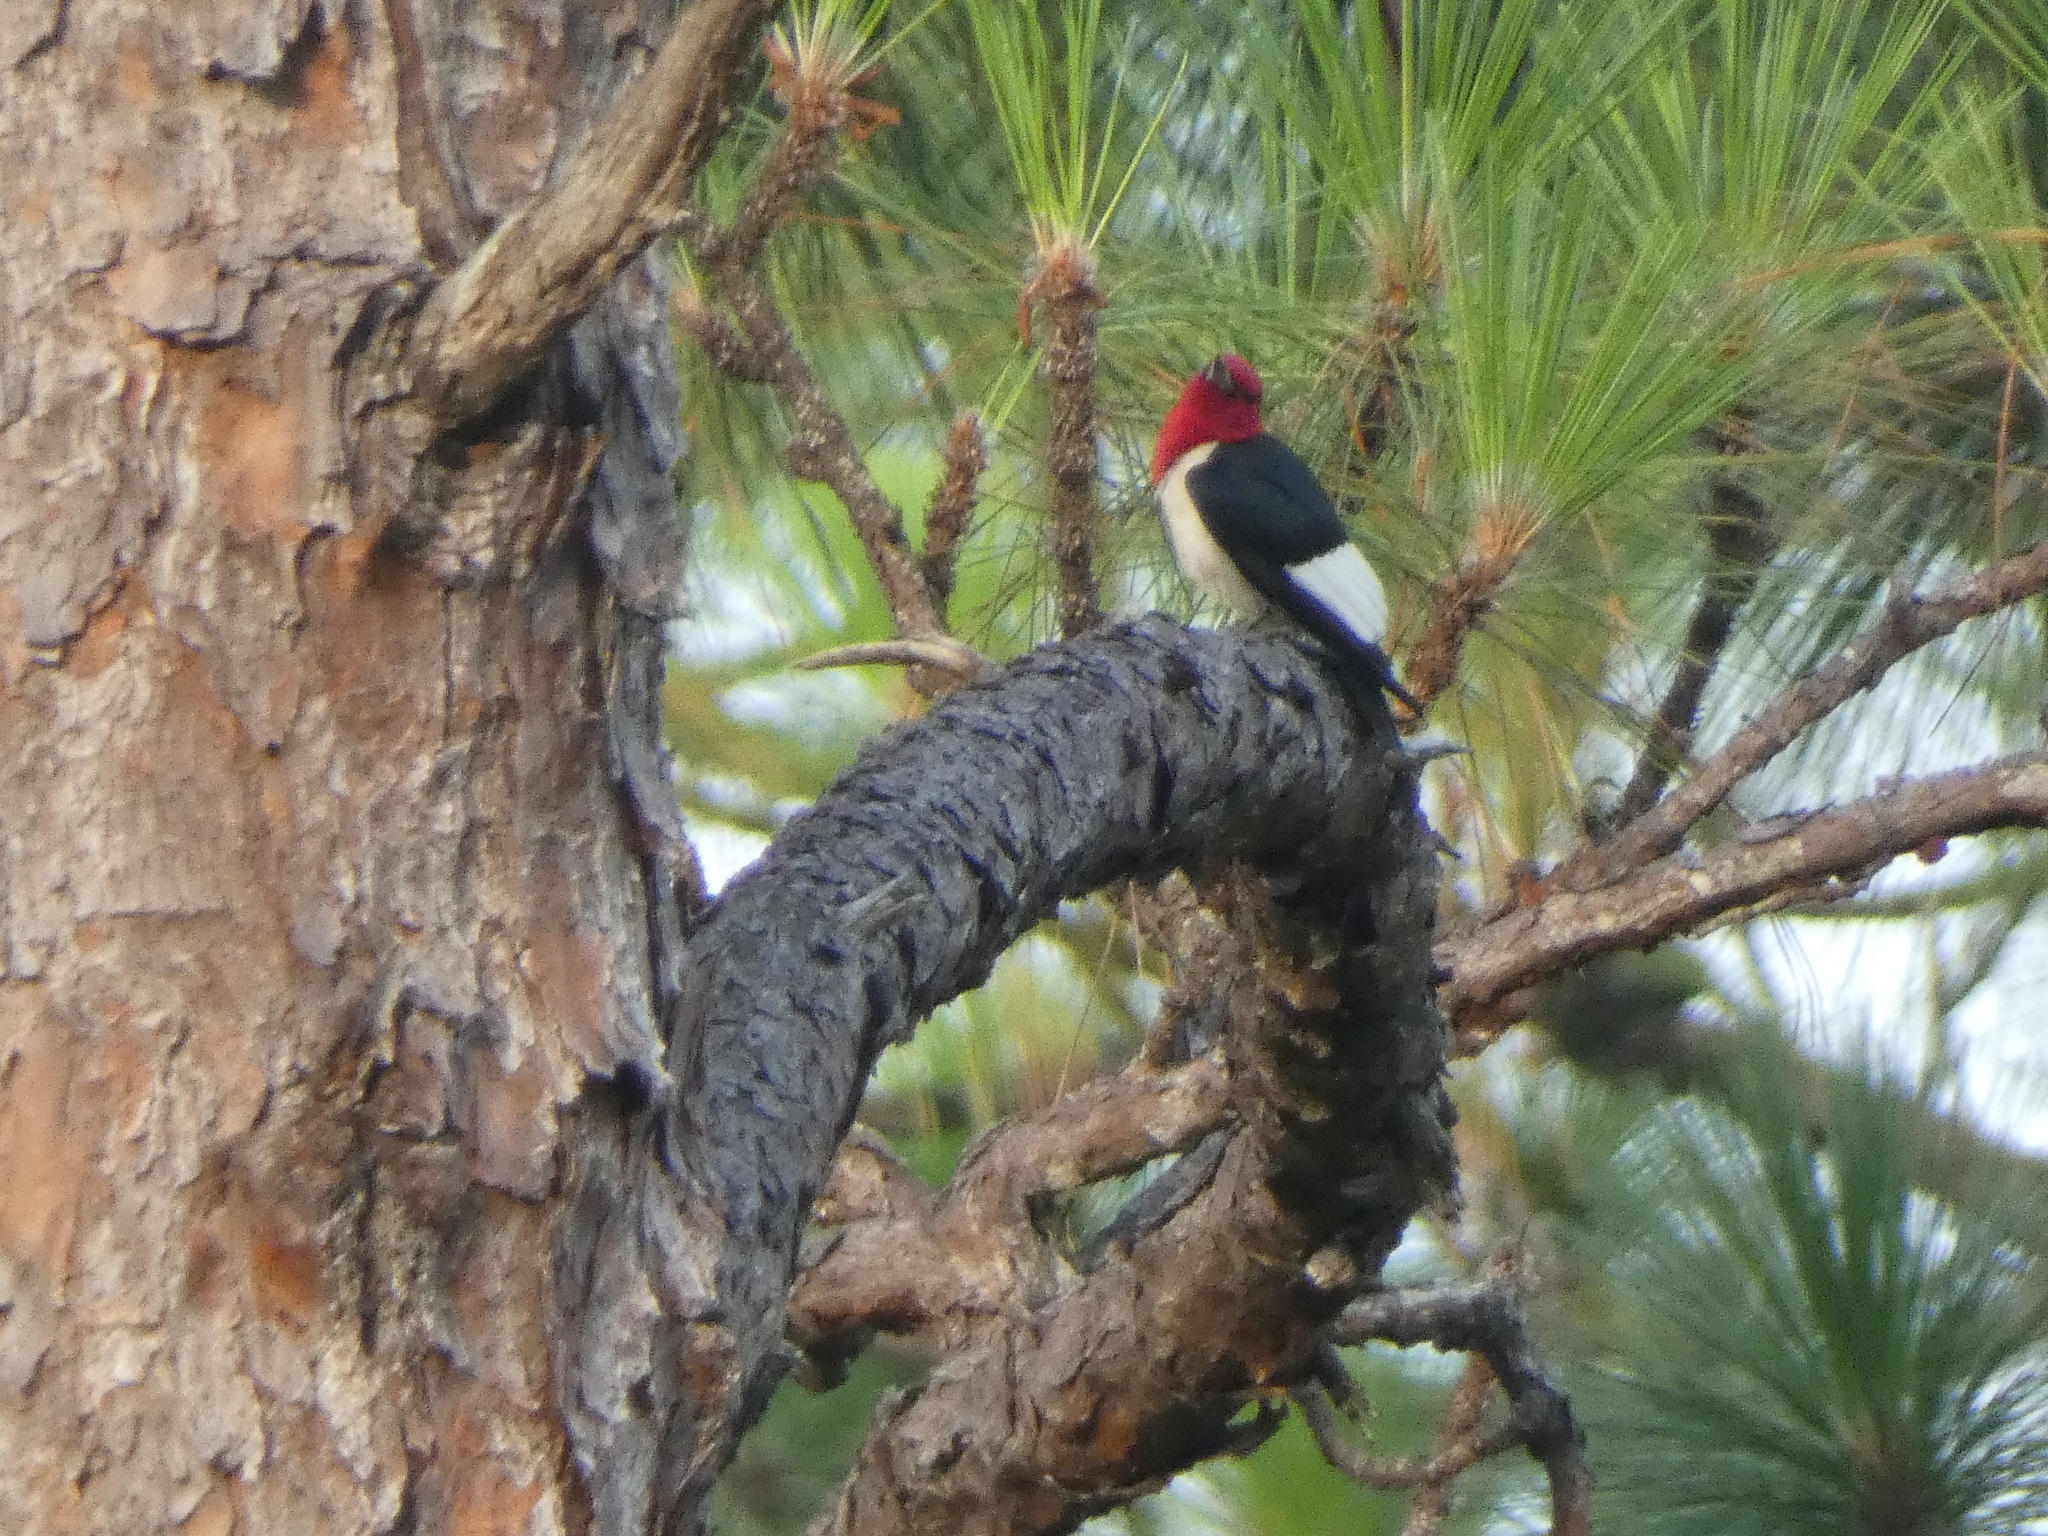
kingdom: Animalia
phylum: Chordata
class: Aves
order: Piciformes
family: Picidae
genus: Melanerpes
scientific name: Melanerpes erythrocephalus
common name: Red-headed woodpecker
